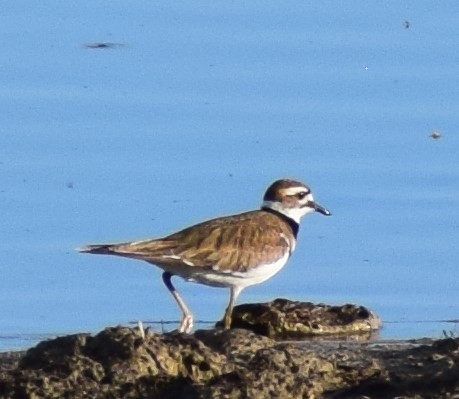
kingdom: Animalia
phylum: Chordata
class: Aves
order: Charadriiformes
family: Charadriidae
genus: Charadrius
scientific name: Charadrius vociferus
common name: Killdeer
